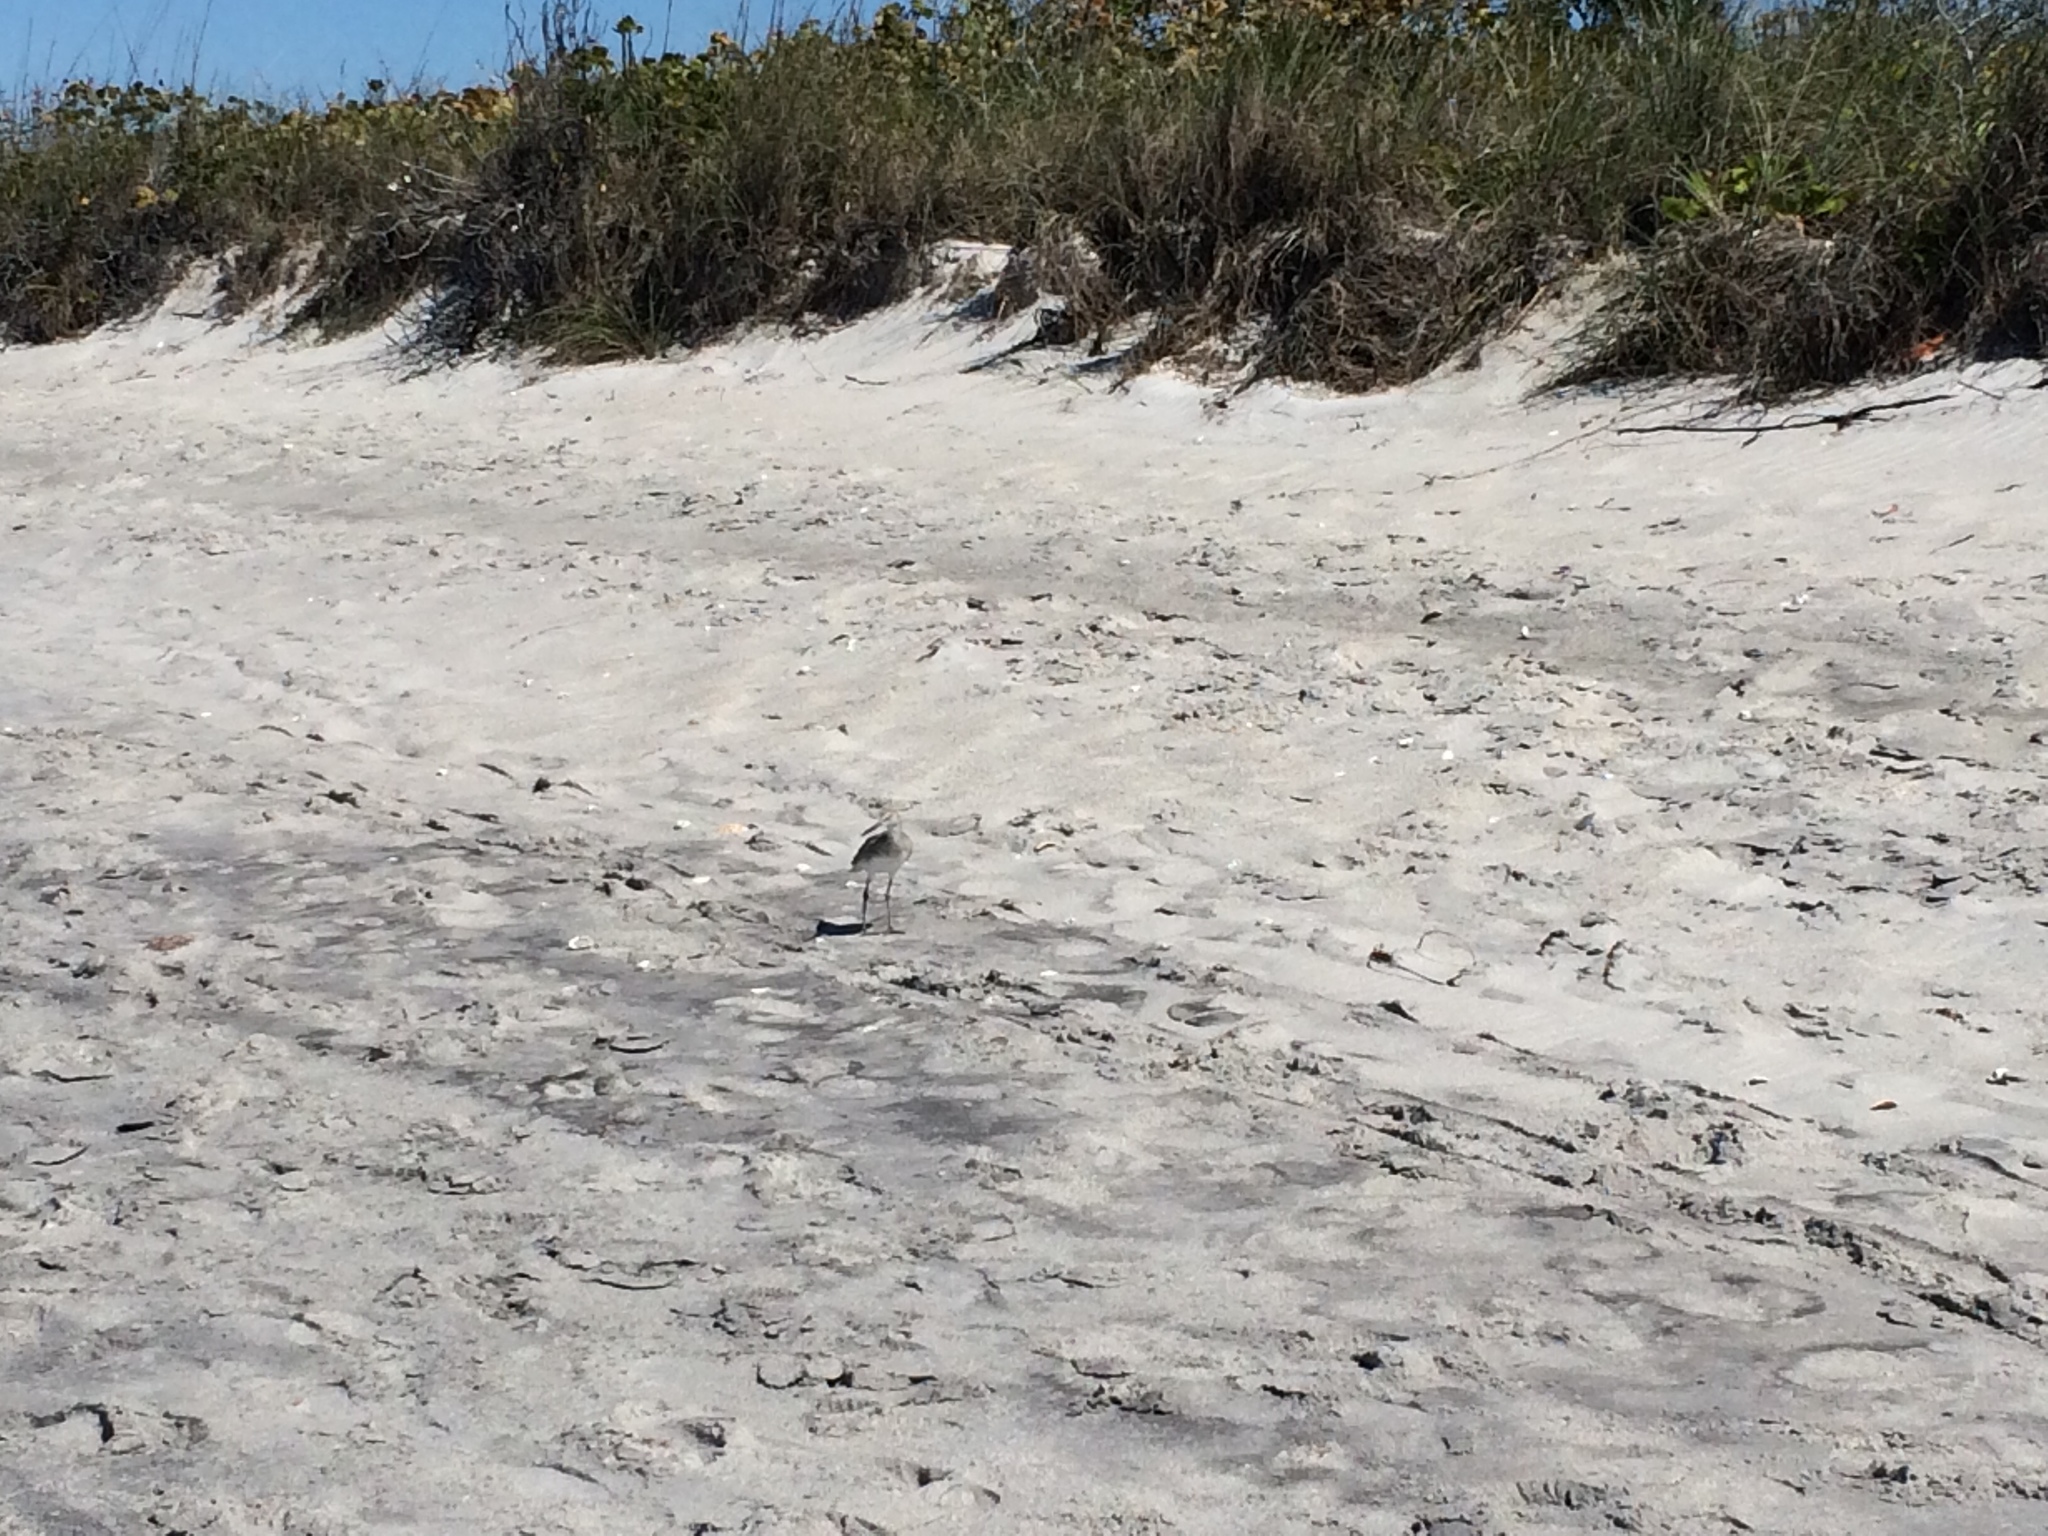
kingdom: Animalia
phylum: Chordata
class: Aves
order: Charadriiformes
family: Scolopacidae
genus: Tringa
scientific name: Tringa semipalmata
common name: Willet
